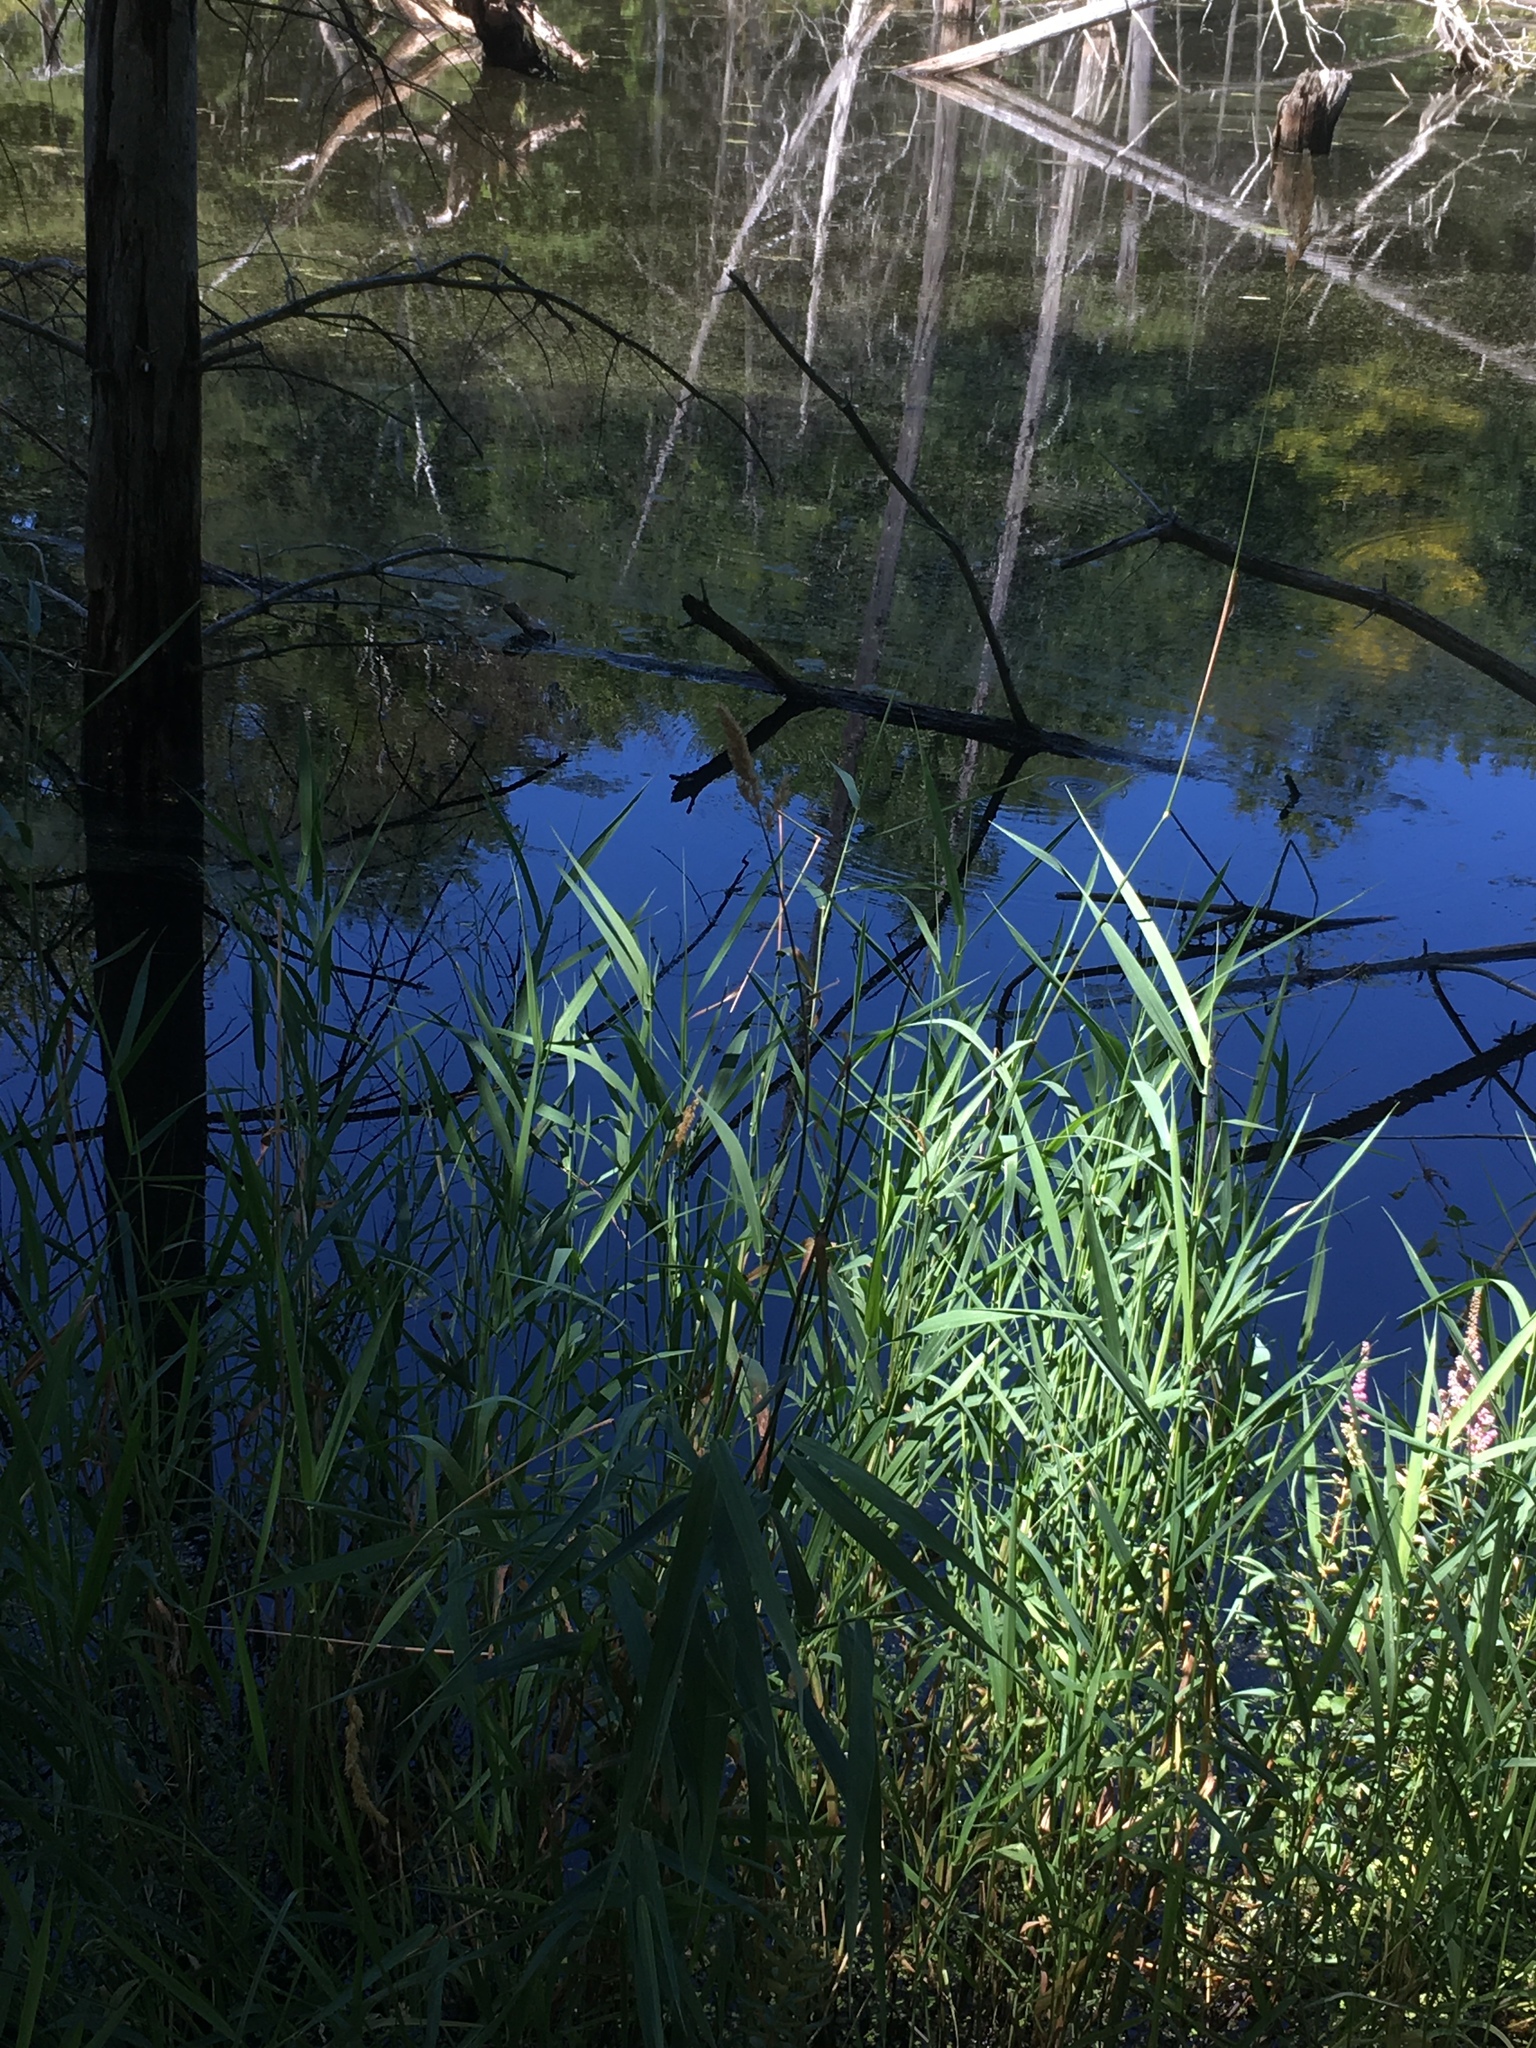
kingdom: Plantae
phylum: Tracheophyta
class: Liliopsida
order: Poales
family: Poaceae
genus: Phalaris
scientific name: Phalaris arundinacea
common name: Reed canary-grass
